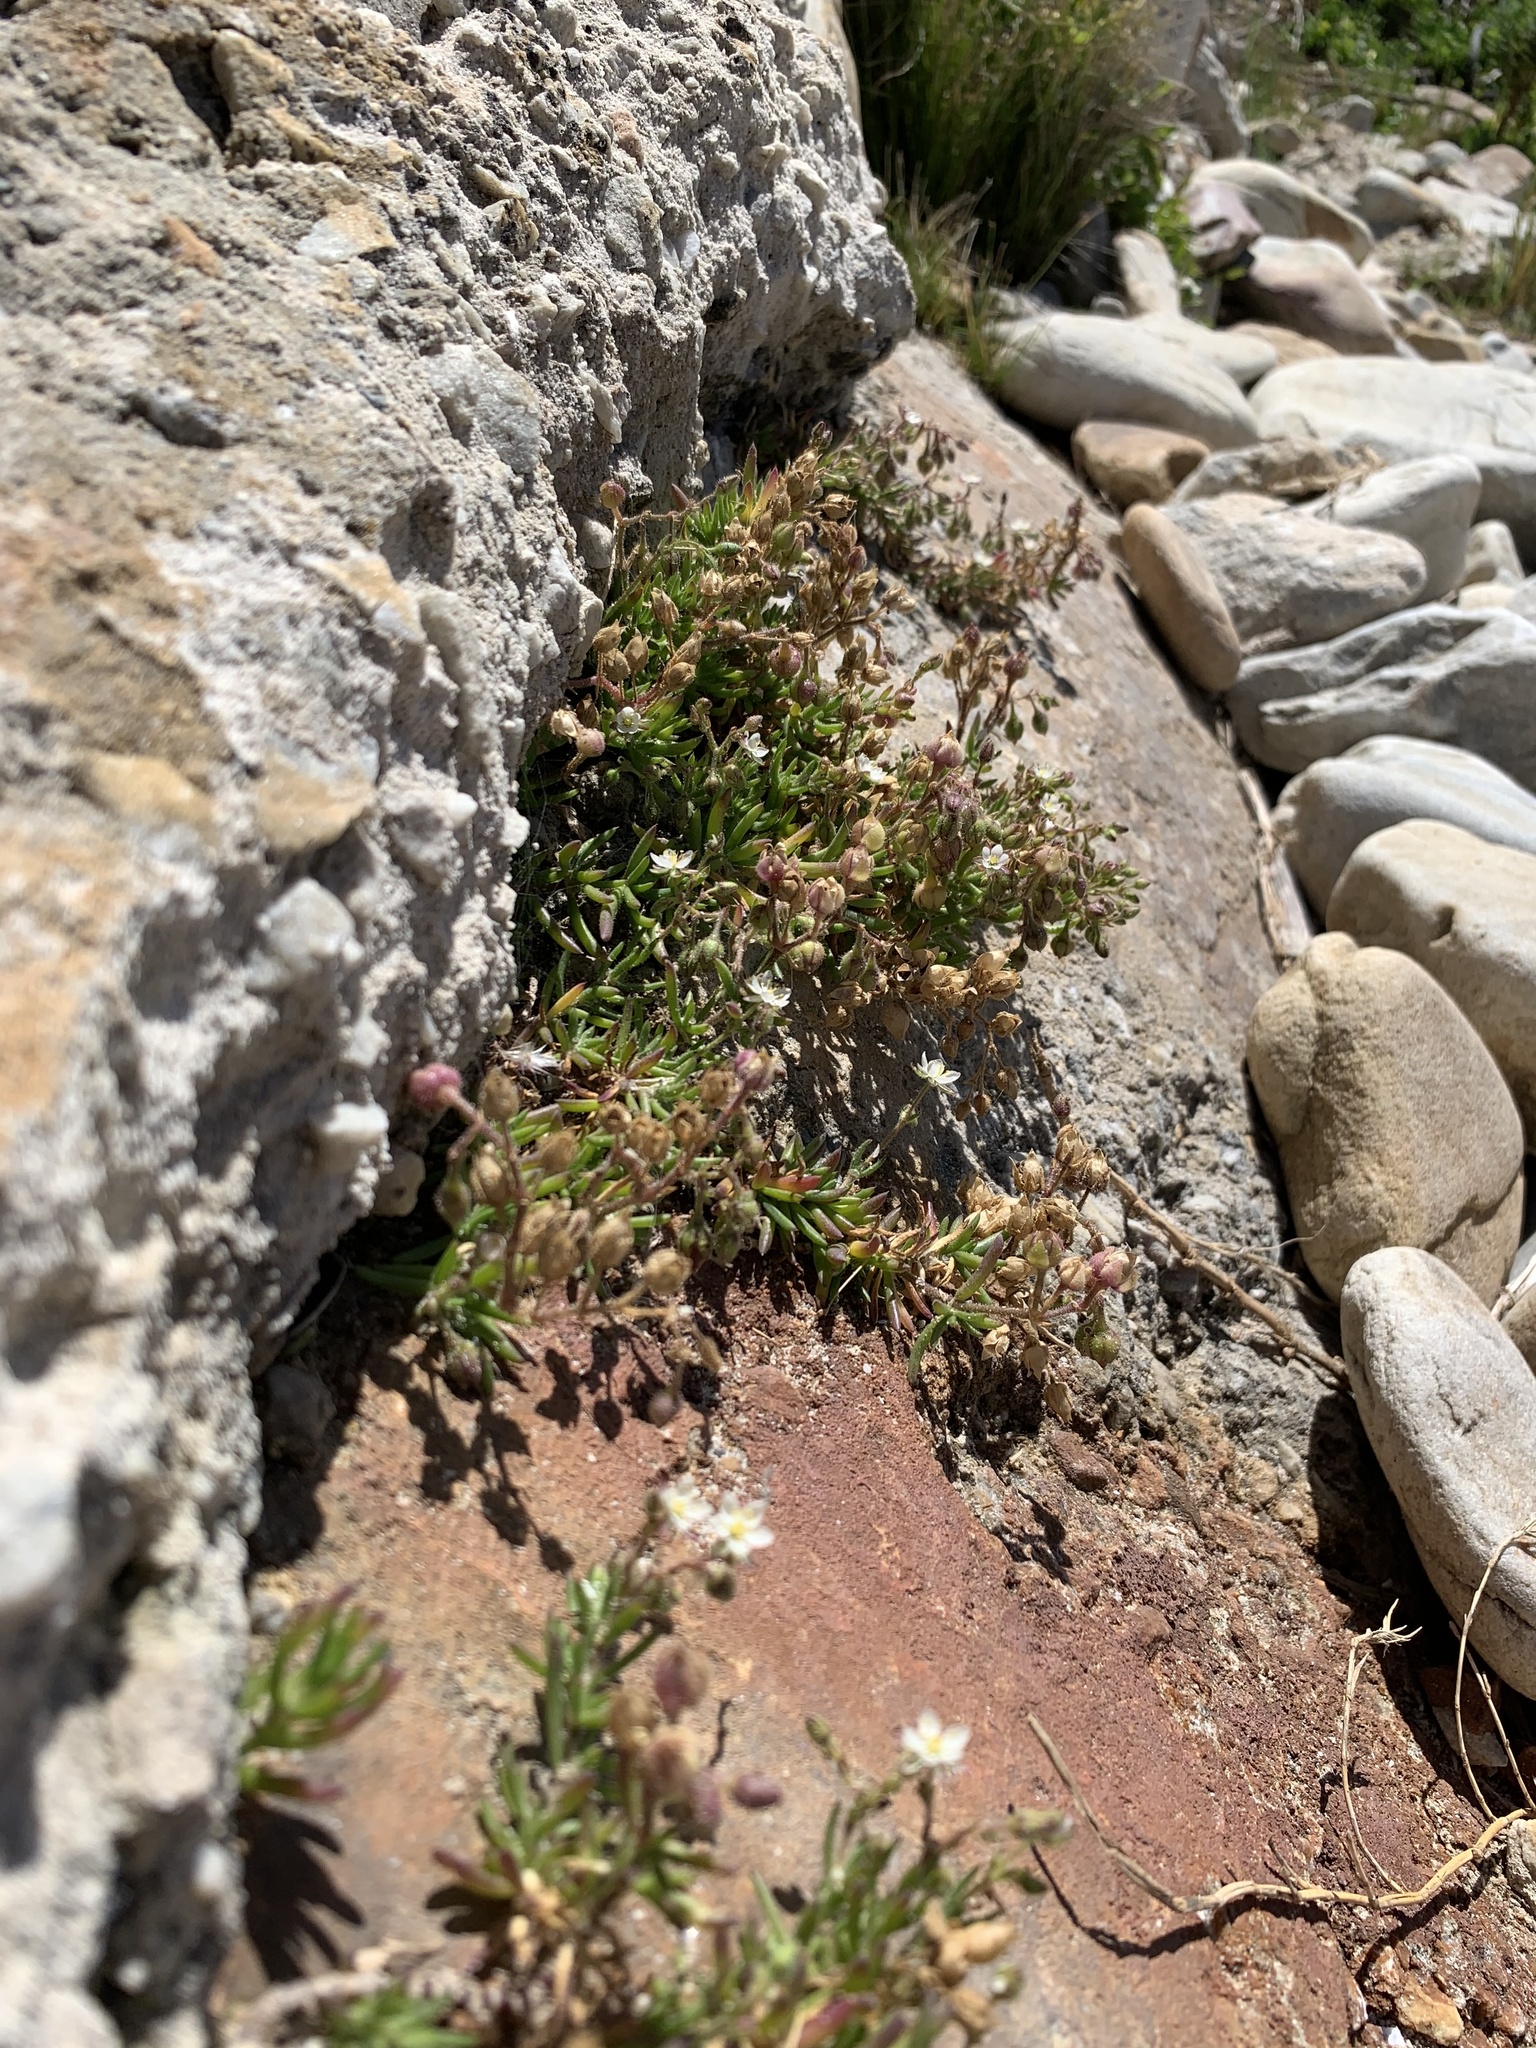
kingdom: Plantae
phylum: Tracheophyta
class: Magnoliopsida
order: Caryophyllales
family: Caryophyllaceae
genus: Spergularia
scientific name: Spergularia media
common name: Greater sea-spurrey
